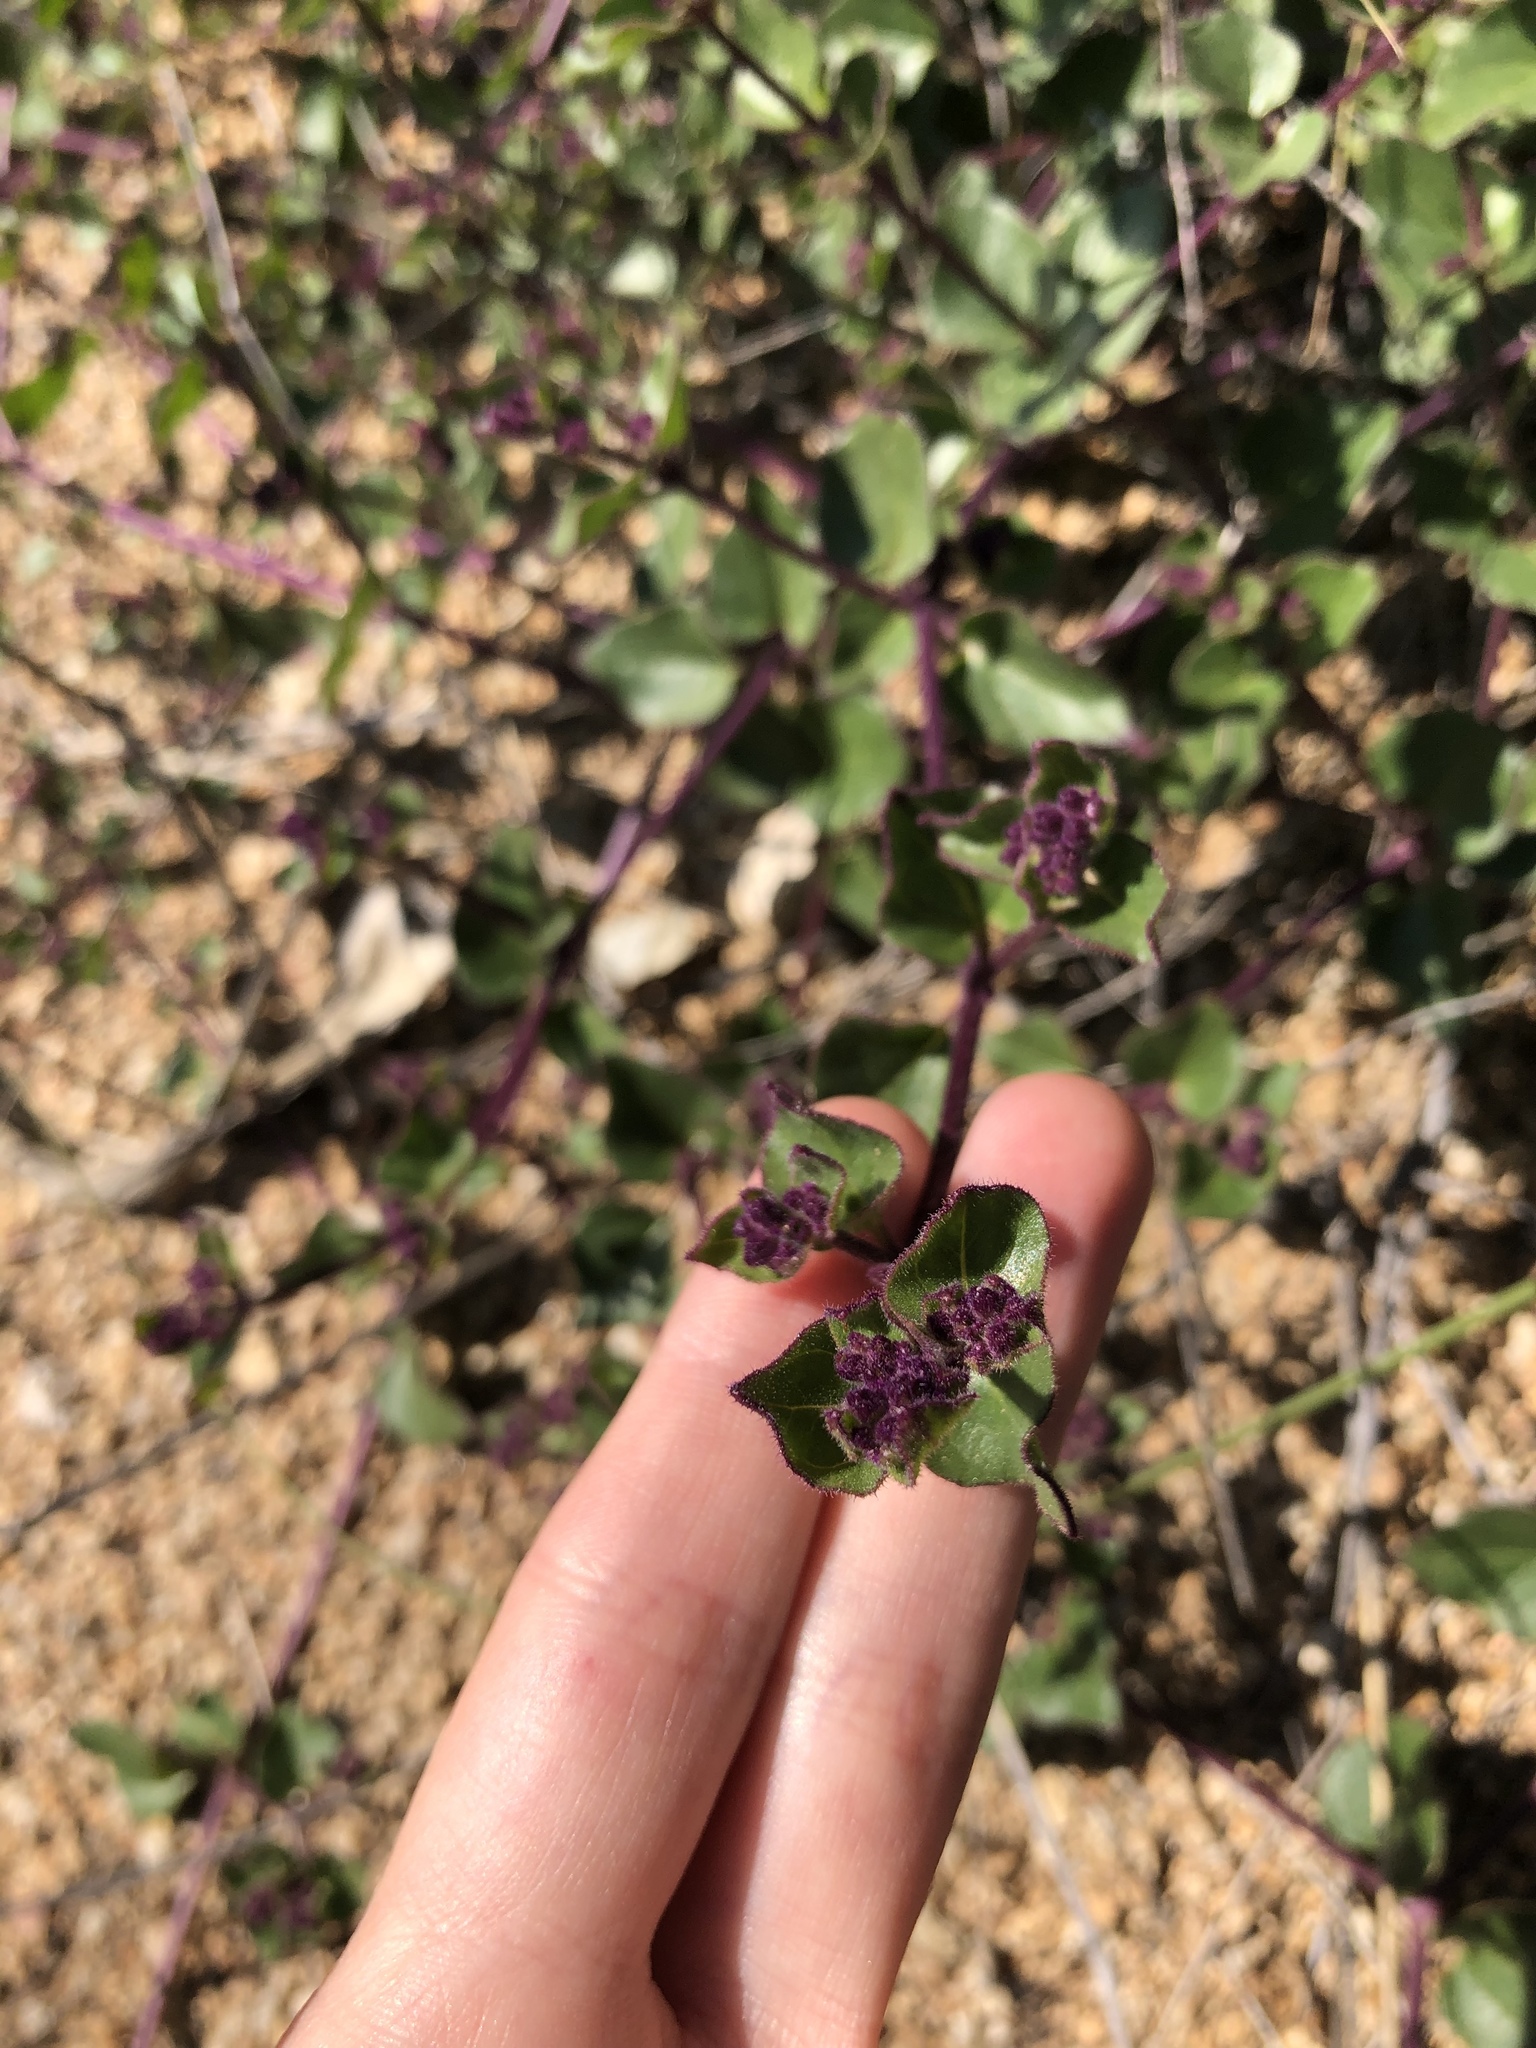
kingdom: Plantae
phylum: Tracheophyta
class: Magnoliopsida
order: Caryophyllales
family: Nyctaginaceae
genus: Mirabilis
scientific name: Mirabilis laevis
